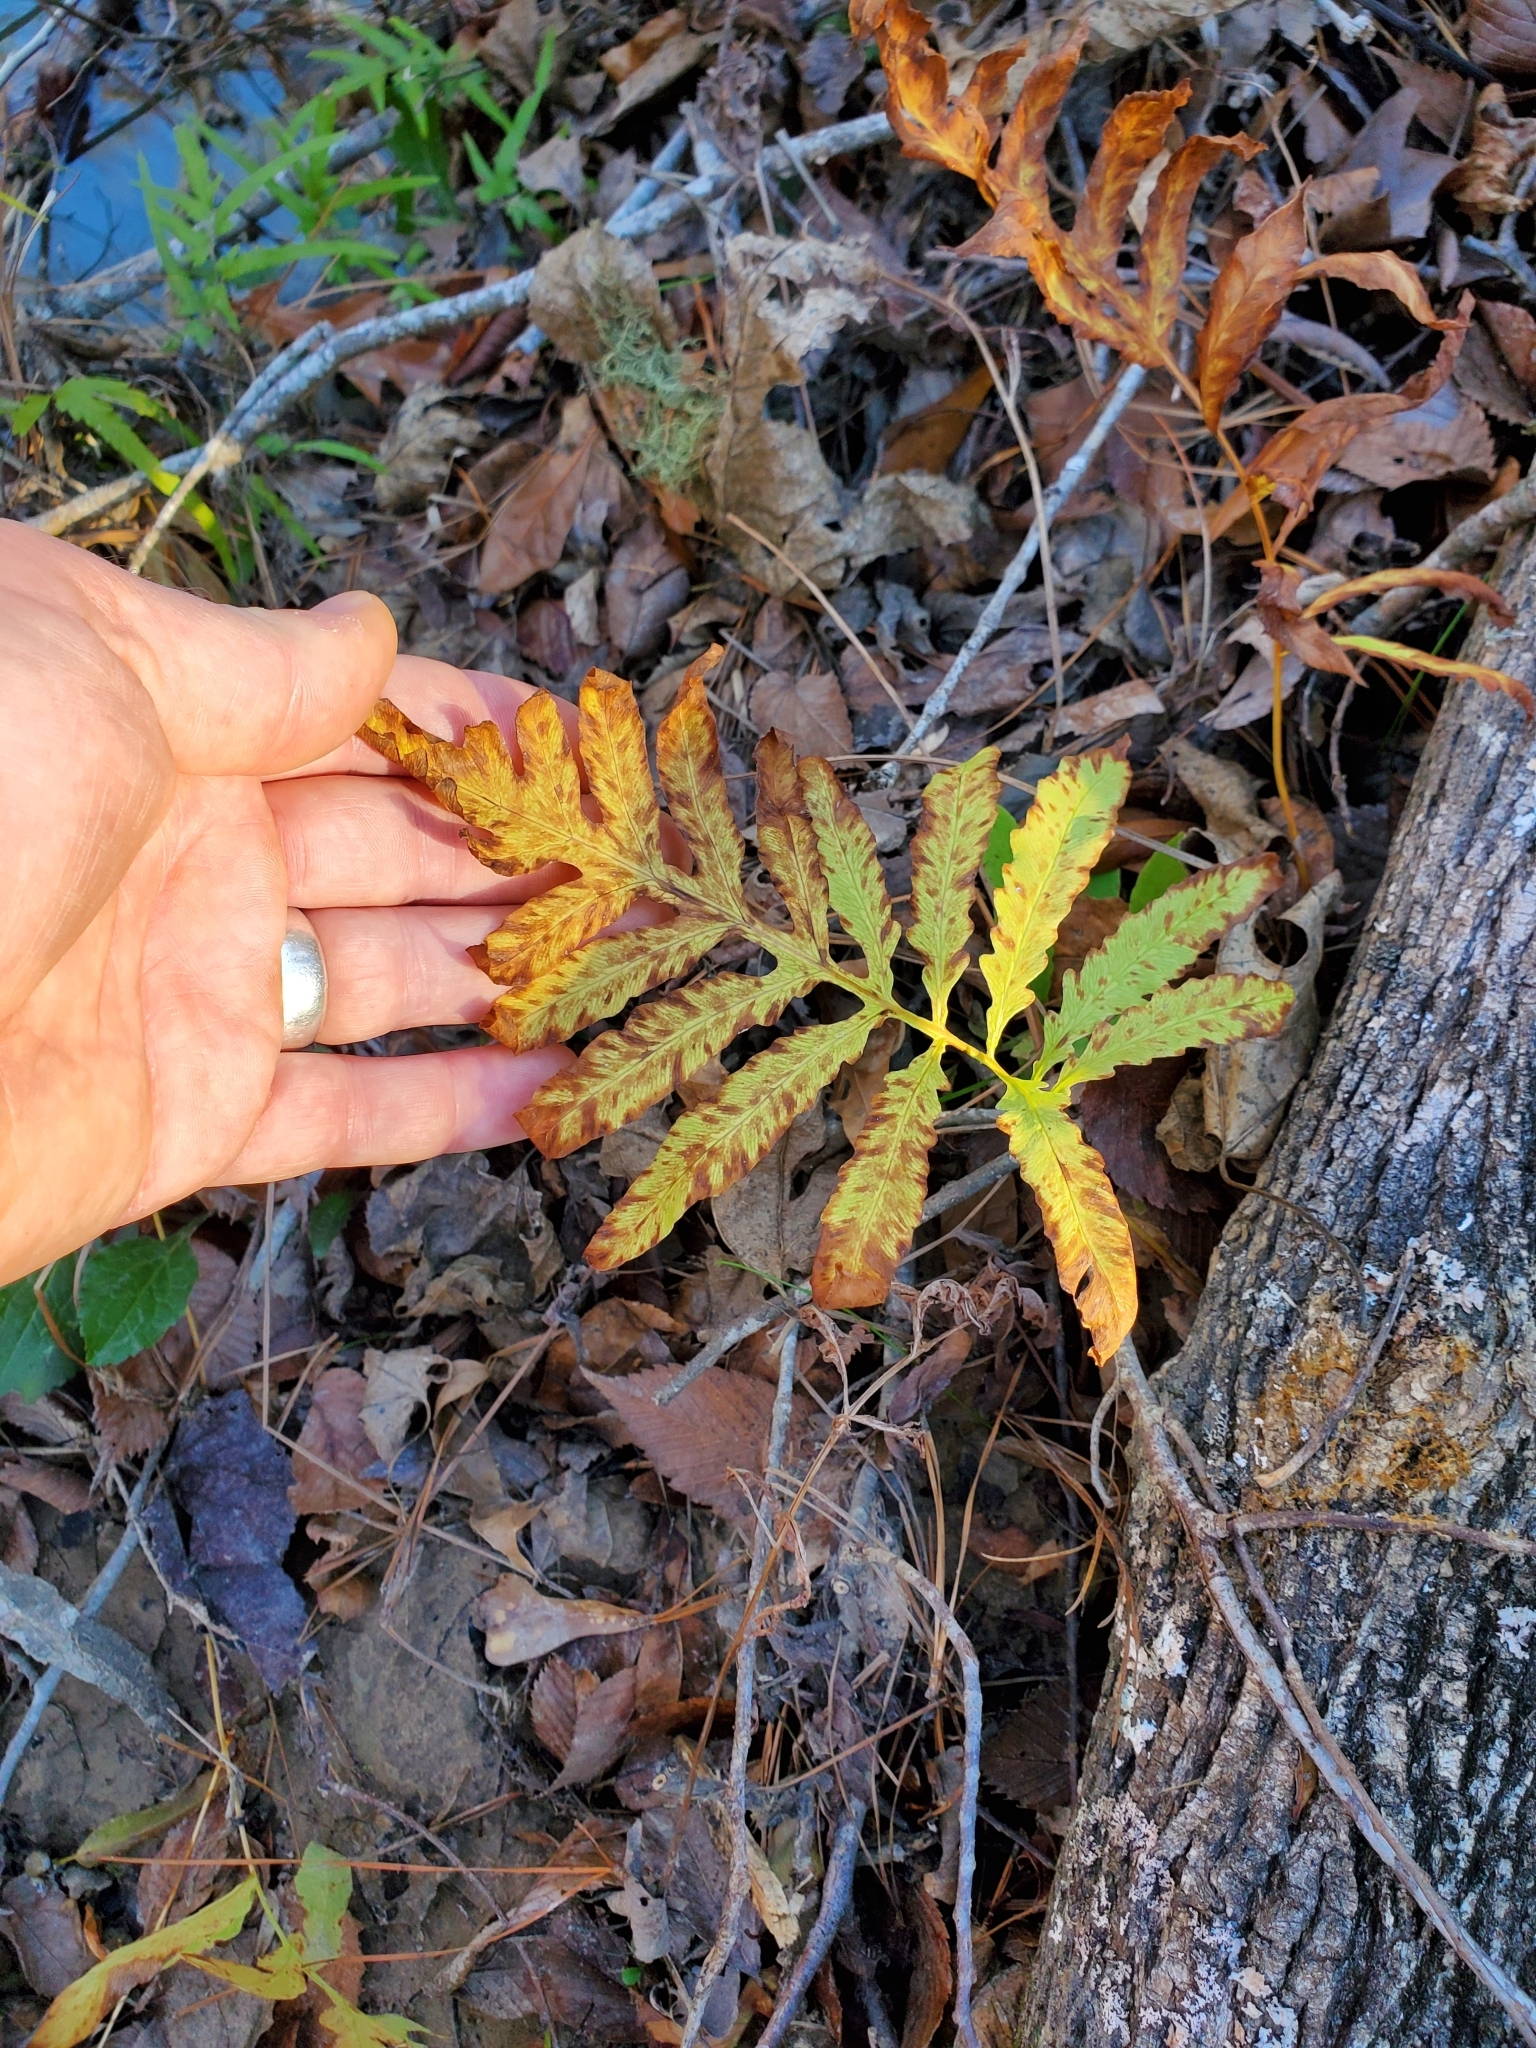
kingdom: Plantae
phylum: Tracheophyta
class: Polypodiopsida
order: Polypodiales
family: Onocleaceae
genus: Onoclea
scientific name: Onoclea sensibilis
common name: Sensitive fern
